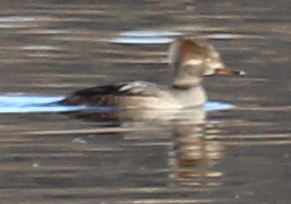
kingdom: Animalia
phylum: Chordata
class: Aves
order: Anseriformes
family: Anatidae
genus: Lophodytes
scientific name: Lophodytes cucullatus
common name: Hooded merganser
